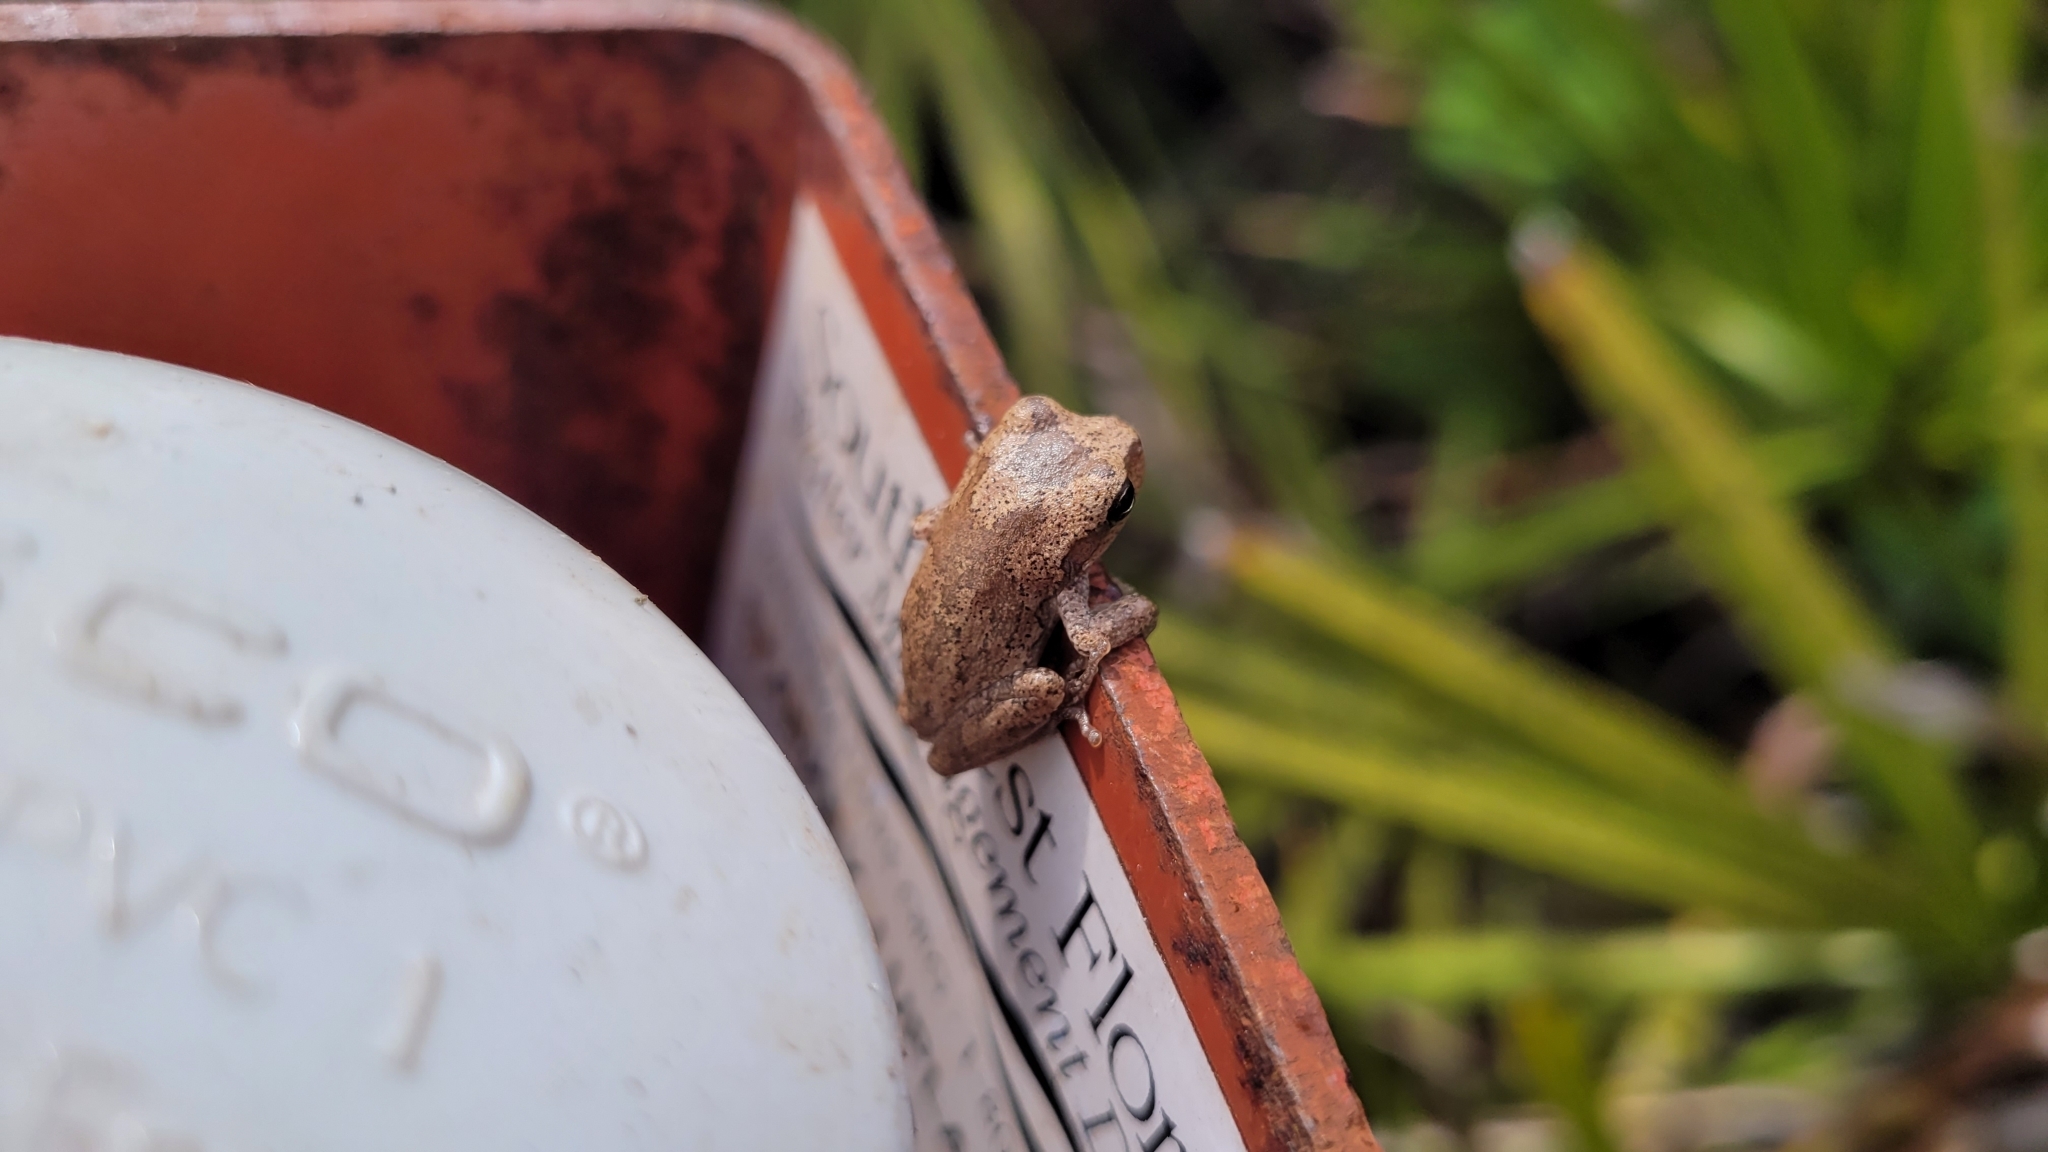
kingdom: Animalia
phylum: Chordata
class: Amphibia
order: Anura
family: Hylidae
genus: Hyla
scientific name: Hyla femoralis
